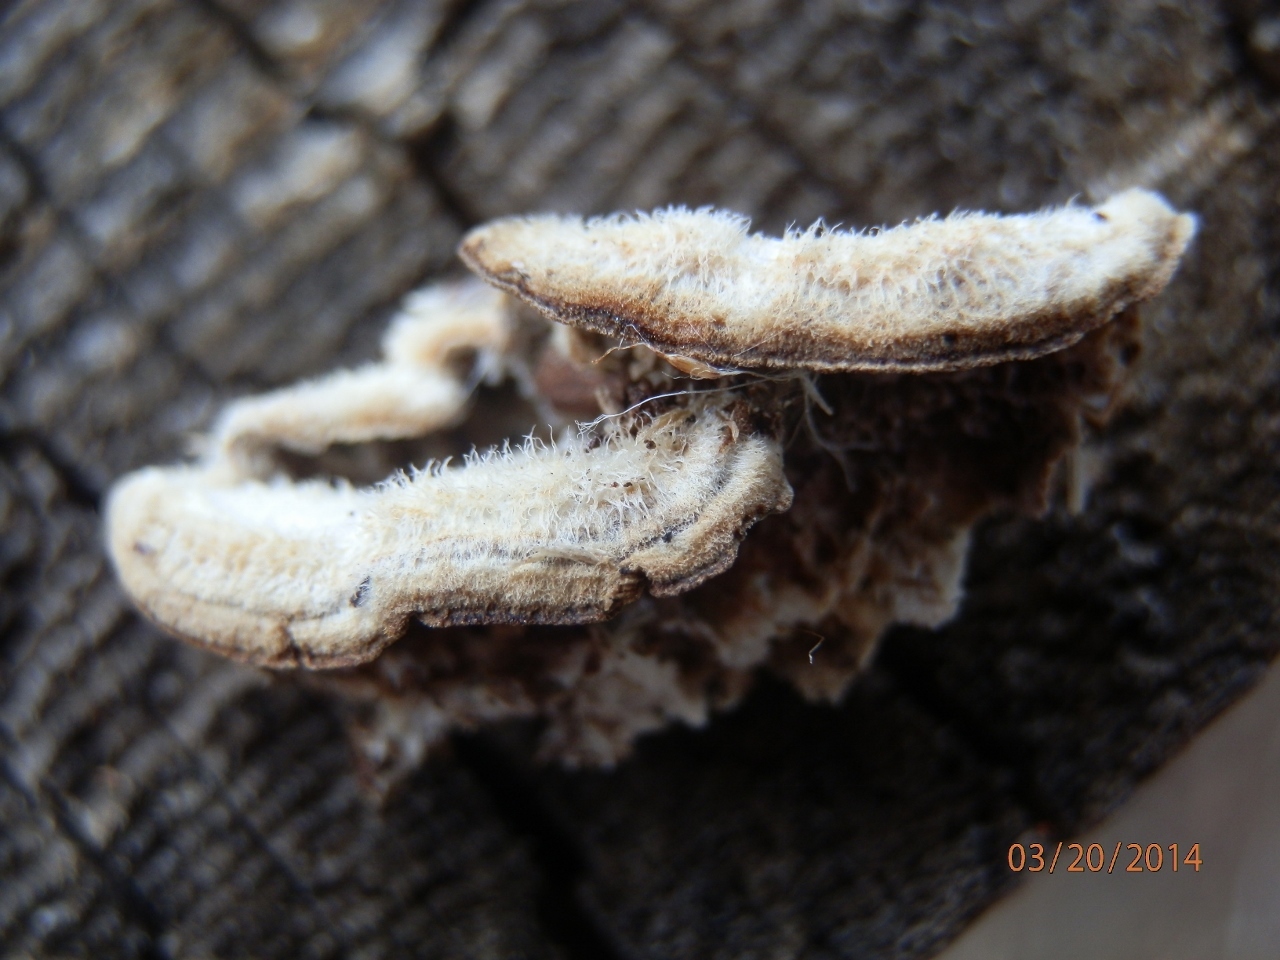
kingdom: Fungi
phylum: Basidiomycota
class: Agaricomycetes
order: Hymenochaetales
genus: Trichaptum
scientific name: Trichaptum abietinum
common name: Purplepore bracket
